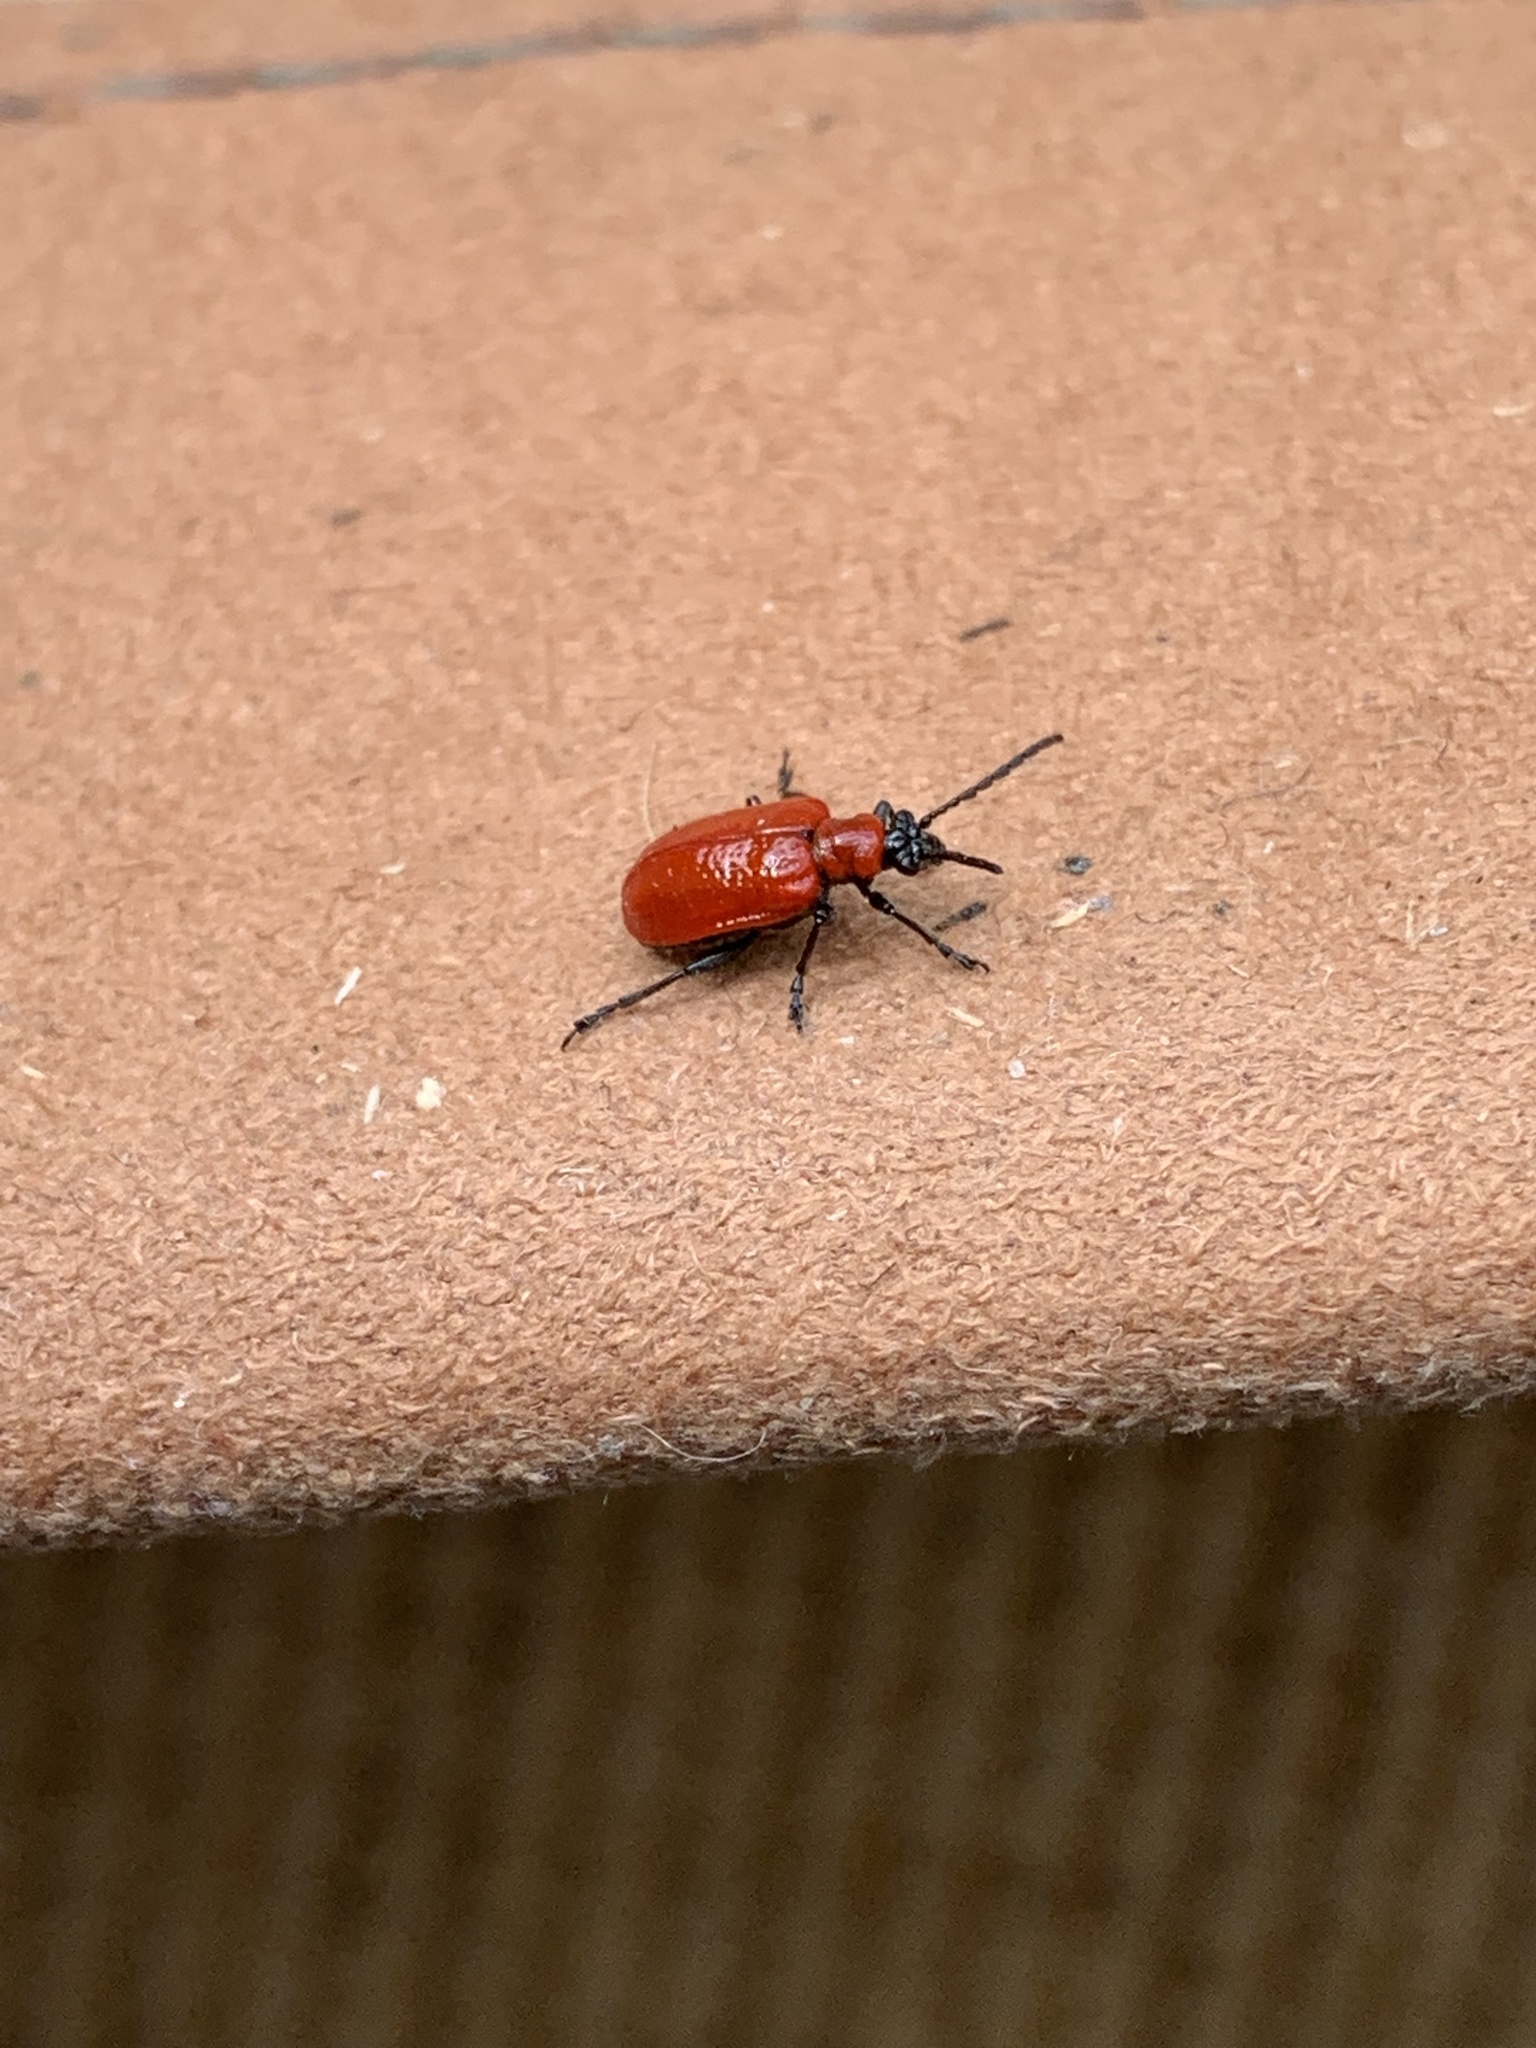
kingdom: Animalia
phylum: Arthropoda
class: Insecta
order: Coleoptera
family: Chrysomelidae
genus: Lilioceris
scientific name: Lilioceris lilii
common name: Lily beetle
